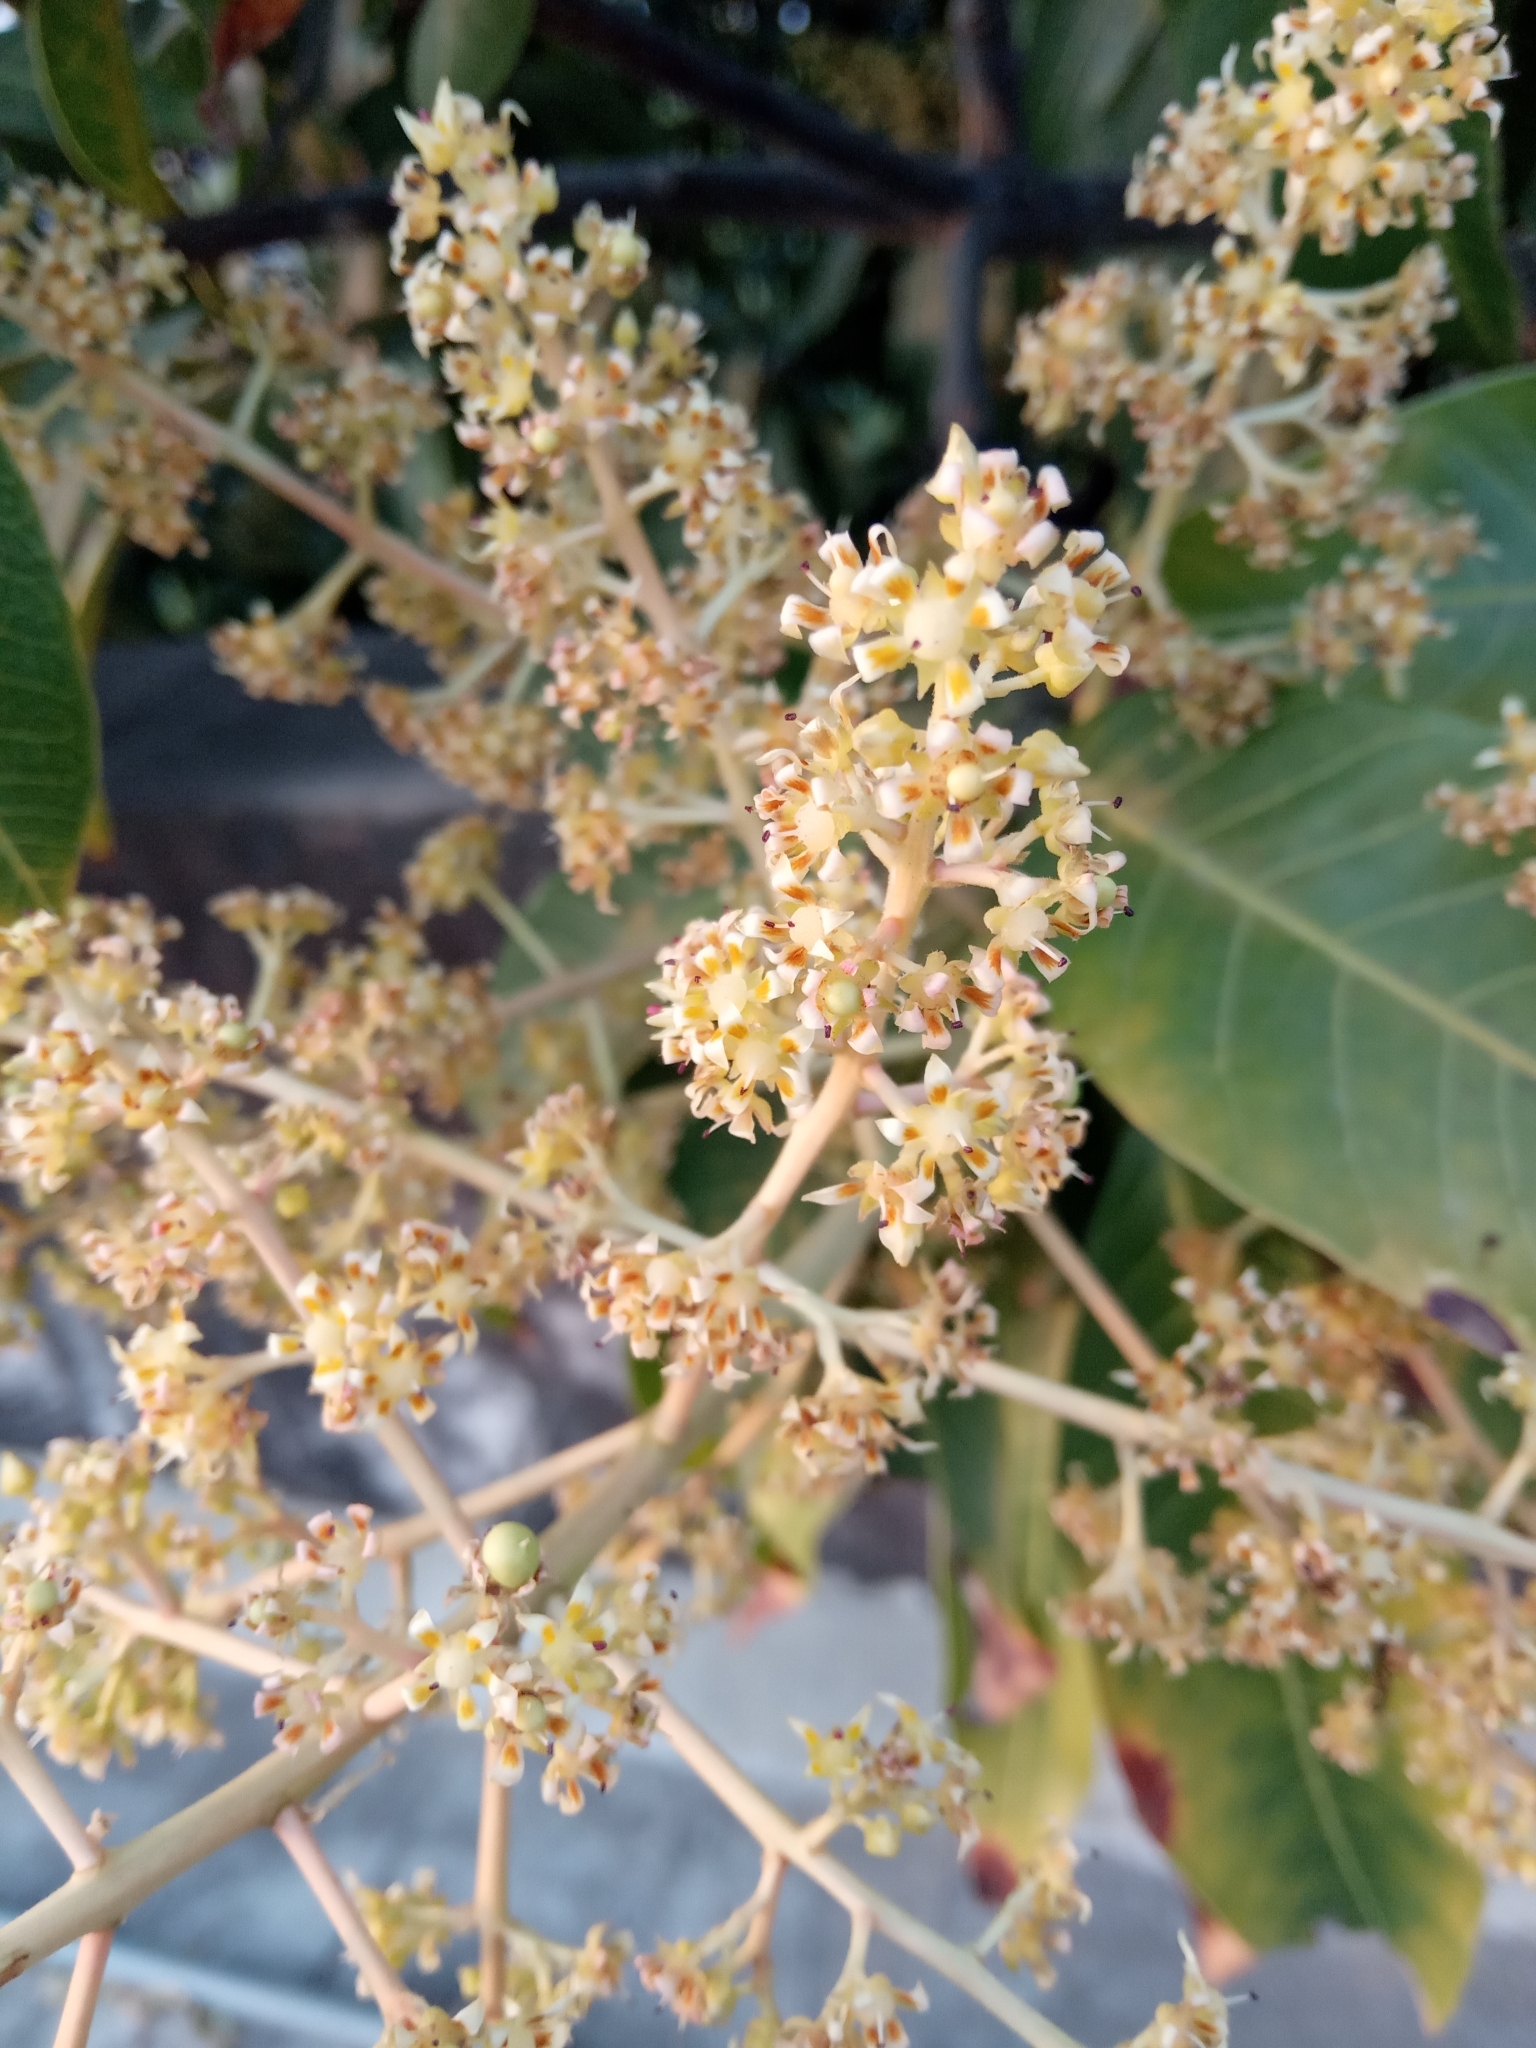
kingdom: Plantae
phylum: Tracheophyta
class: Magnoliopsida
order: Sapindales
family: Anacardiaceae
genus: Mangifera
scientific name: Mangifera indica
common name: Mango
